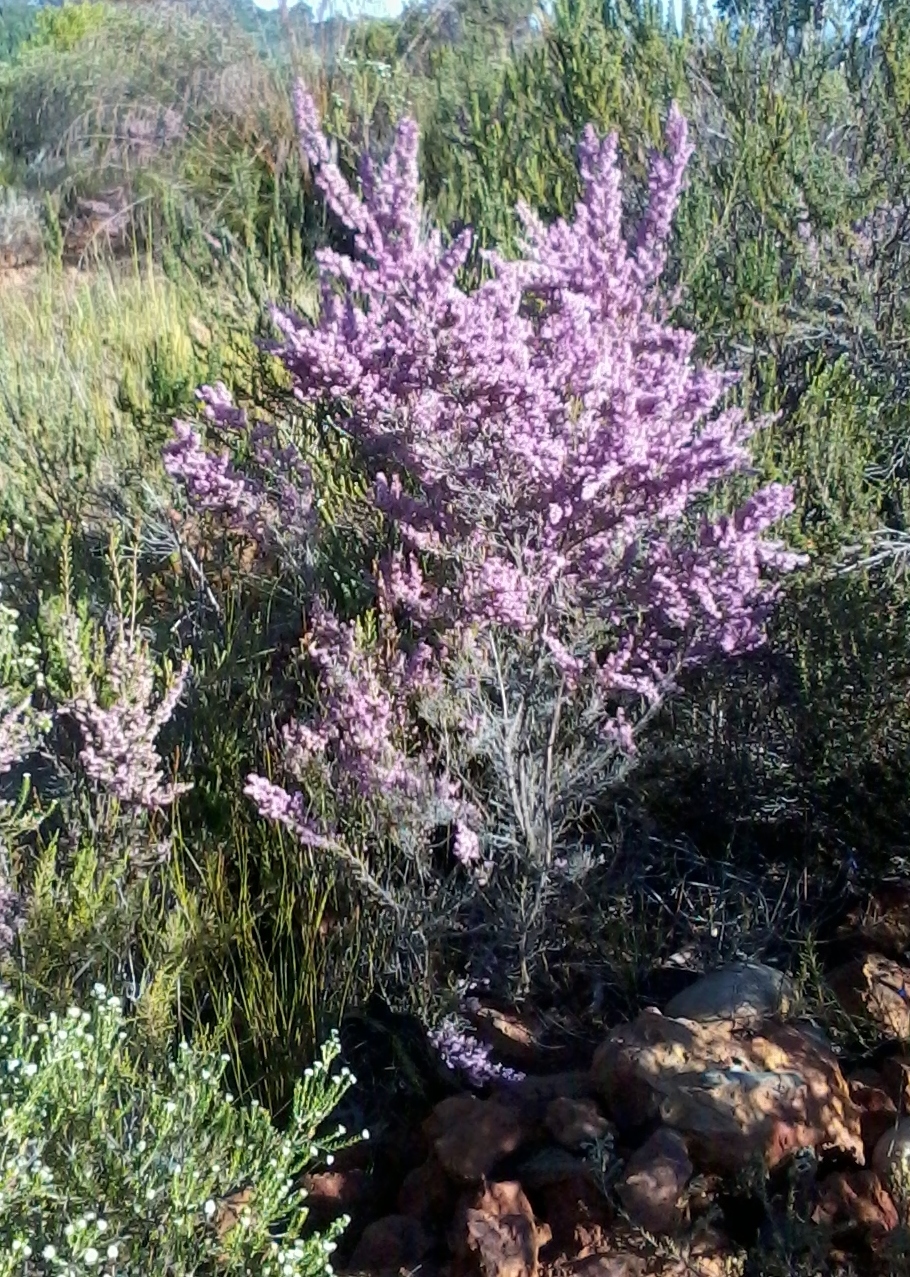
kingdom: Plantae
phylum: Tracheophyta
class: Magnoliopsida
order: Ericales
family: Ericaceae
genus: Erica
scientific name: Erica uberiflora
